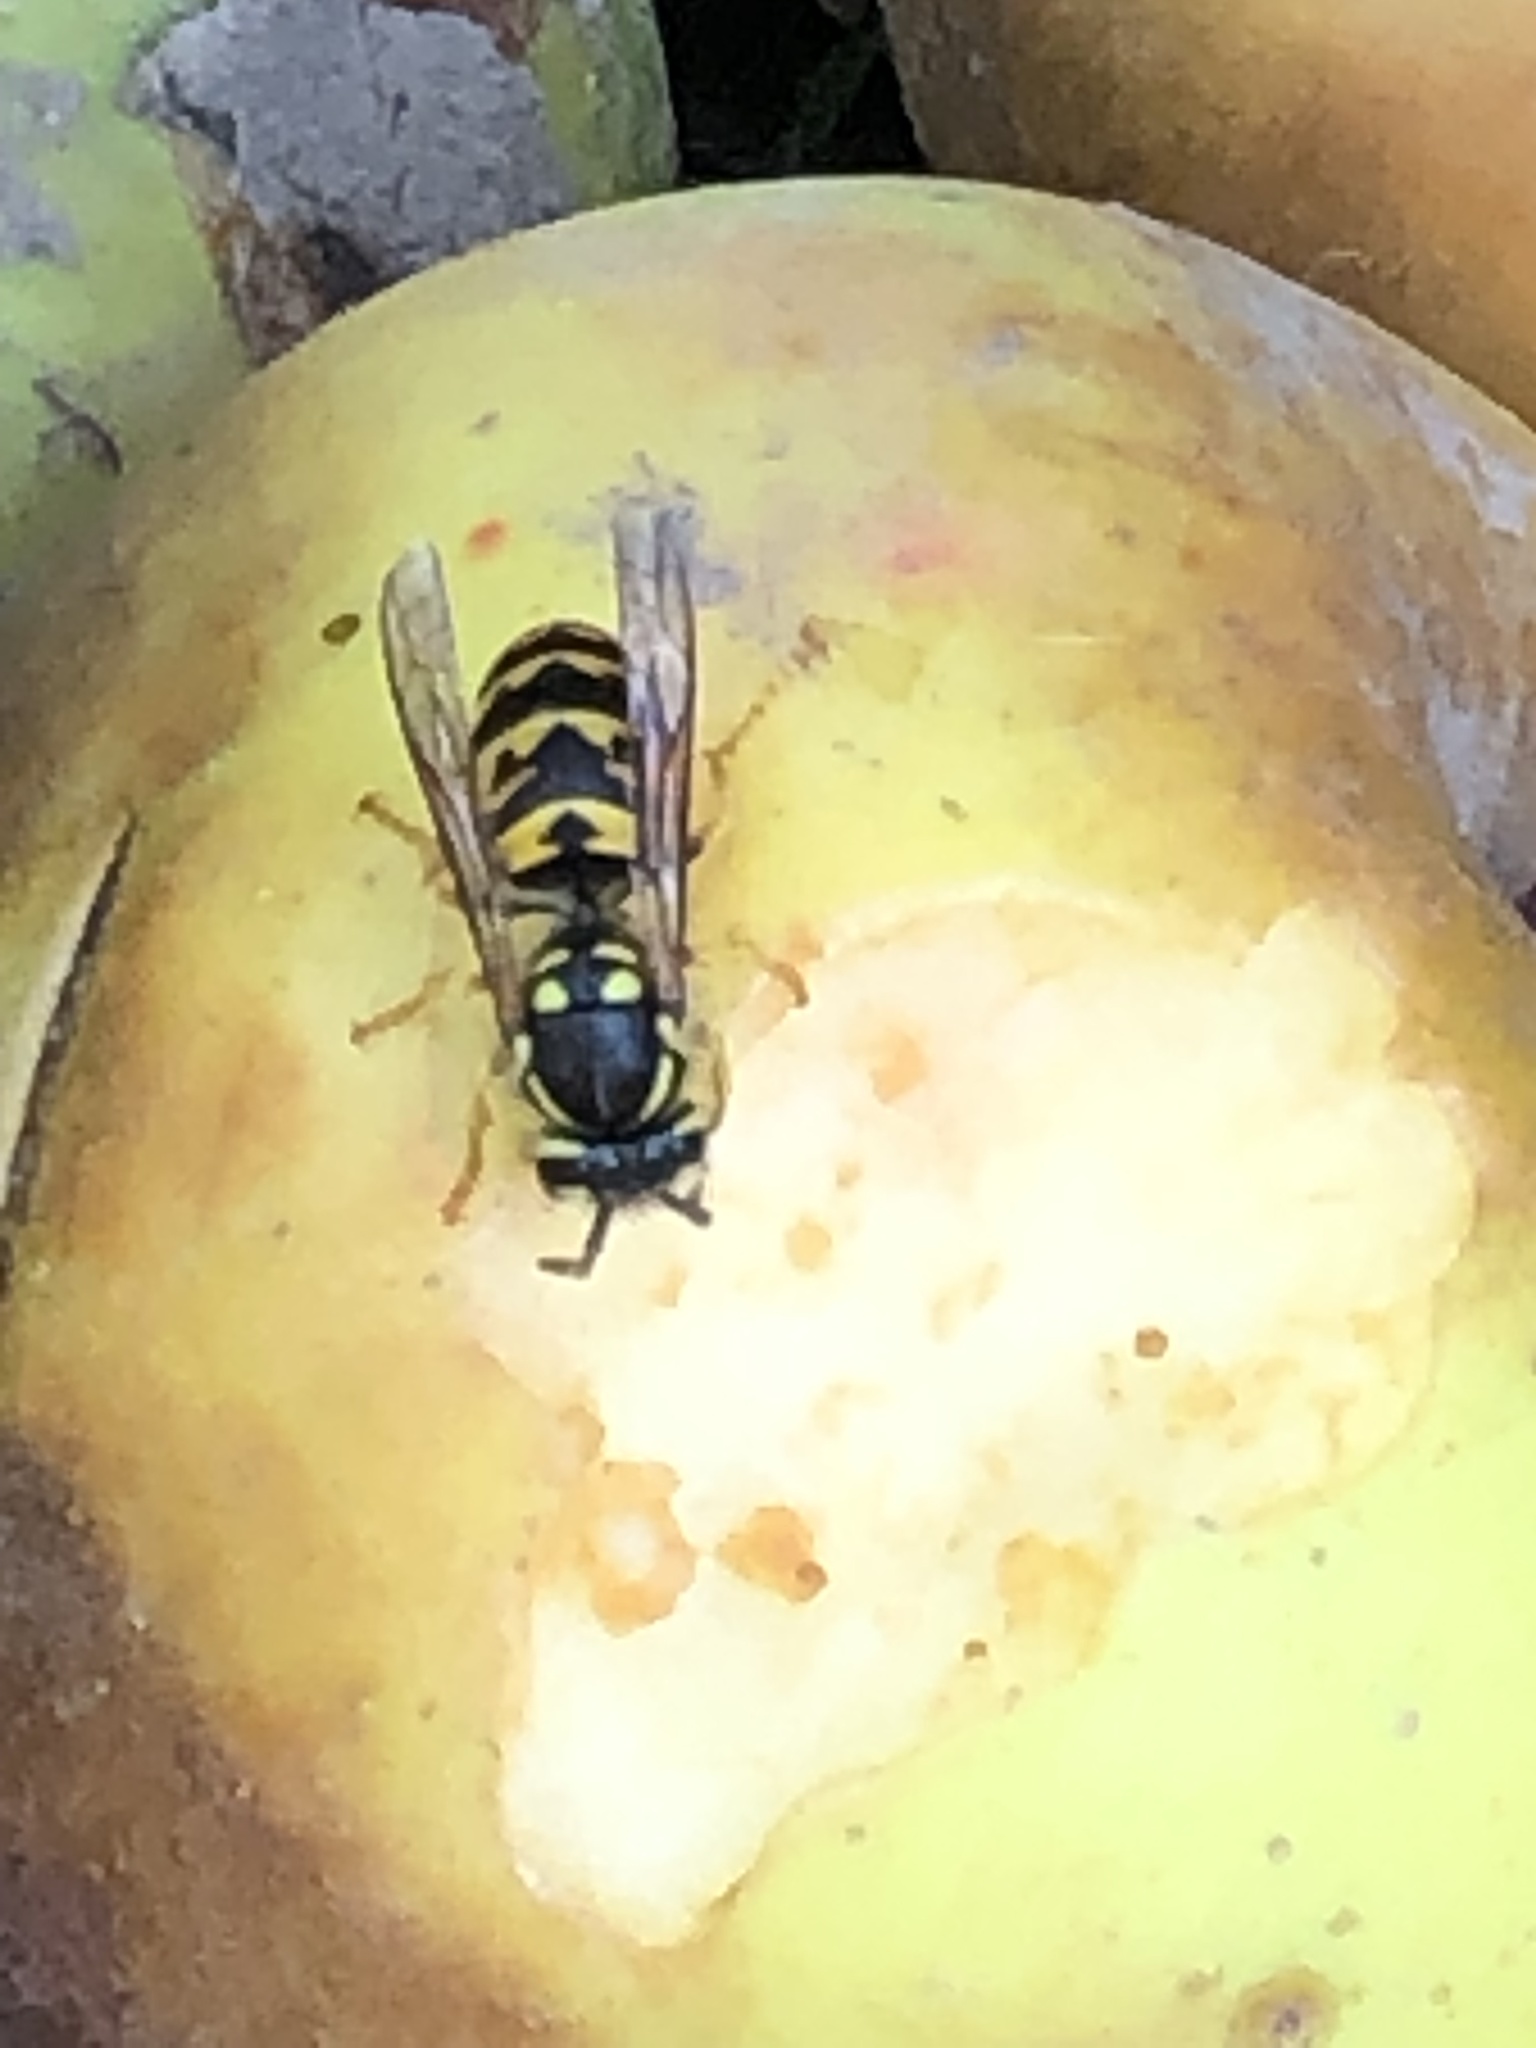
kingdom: Animalia
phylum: Arthropoda
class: Insecta
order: Hymenoptera
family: Vespidae
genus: Vespula
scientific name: Vespula germanica
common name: German wasp
